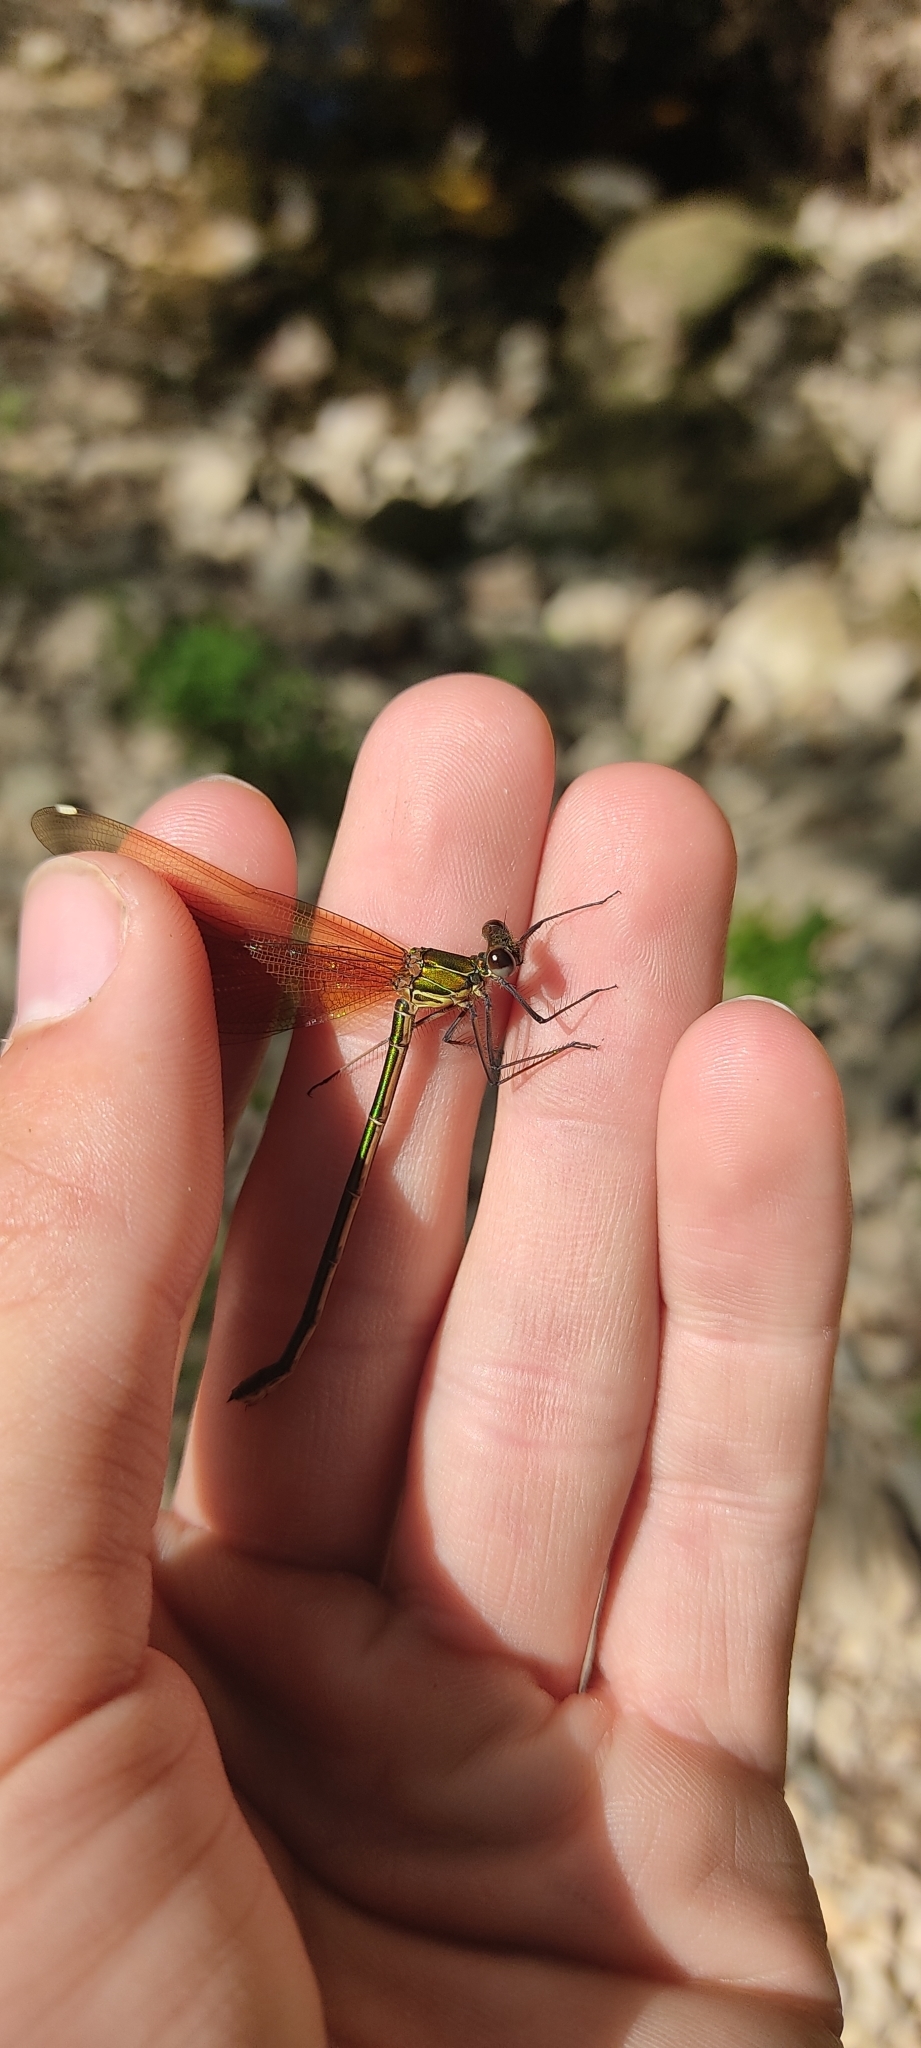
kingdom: Animalia
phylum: Arthropoda
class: Insecta
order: Odonata
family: Calopterygidae
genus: Calopteryx
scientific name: Calopteryx haemorrhoidalis
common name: Copper demoiselle
